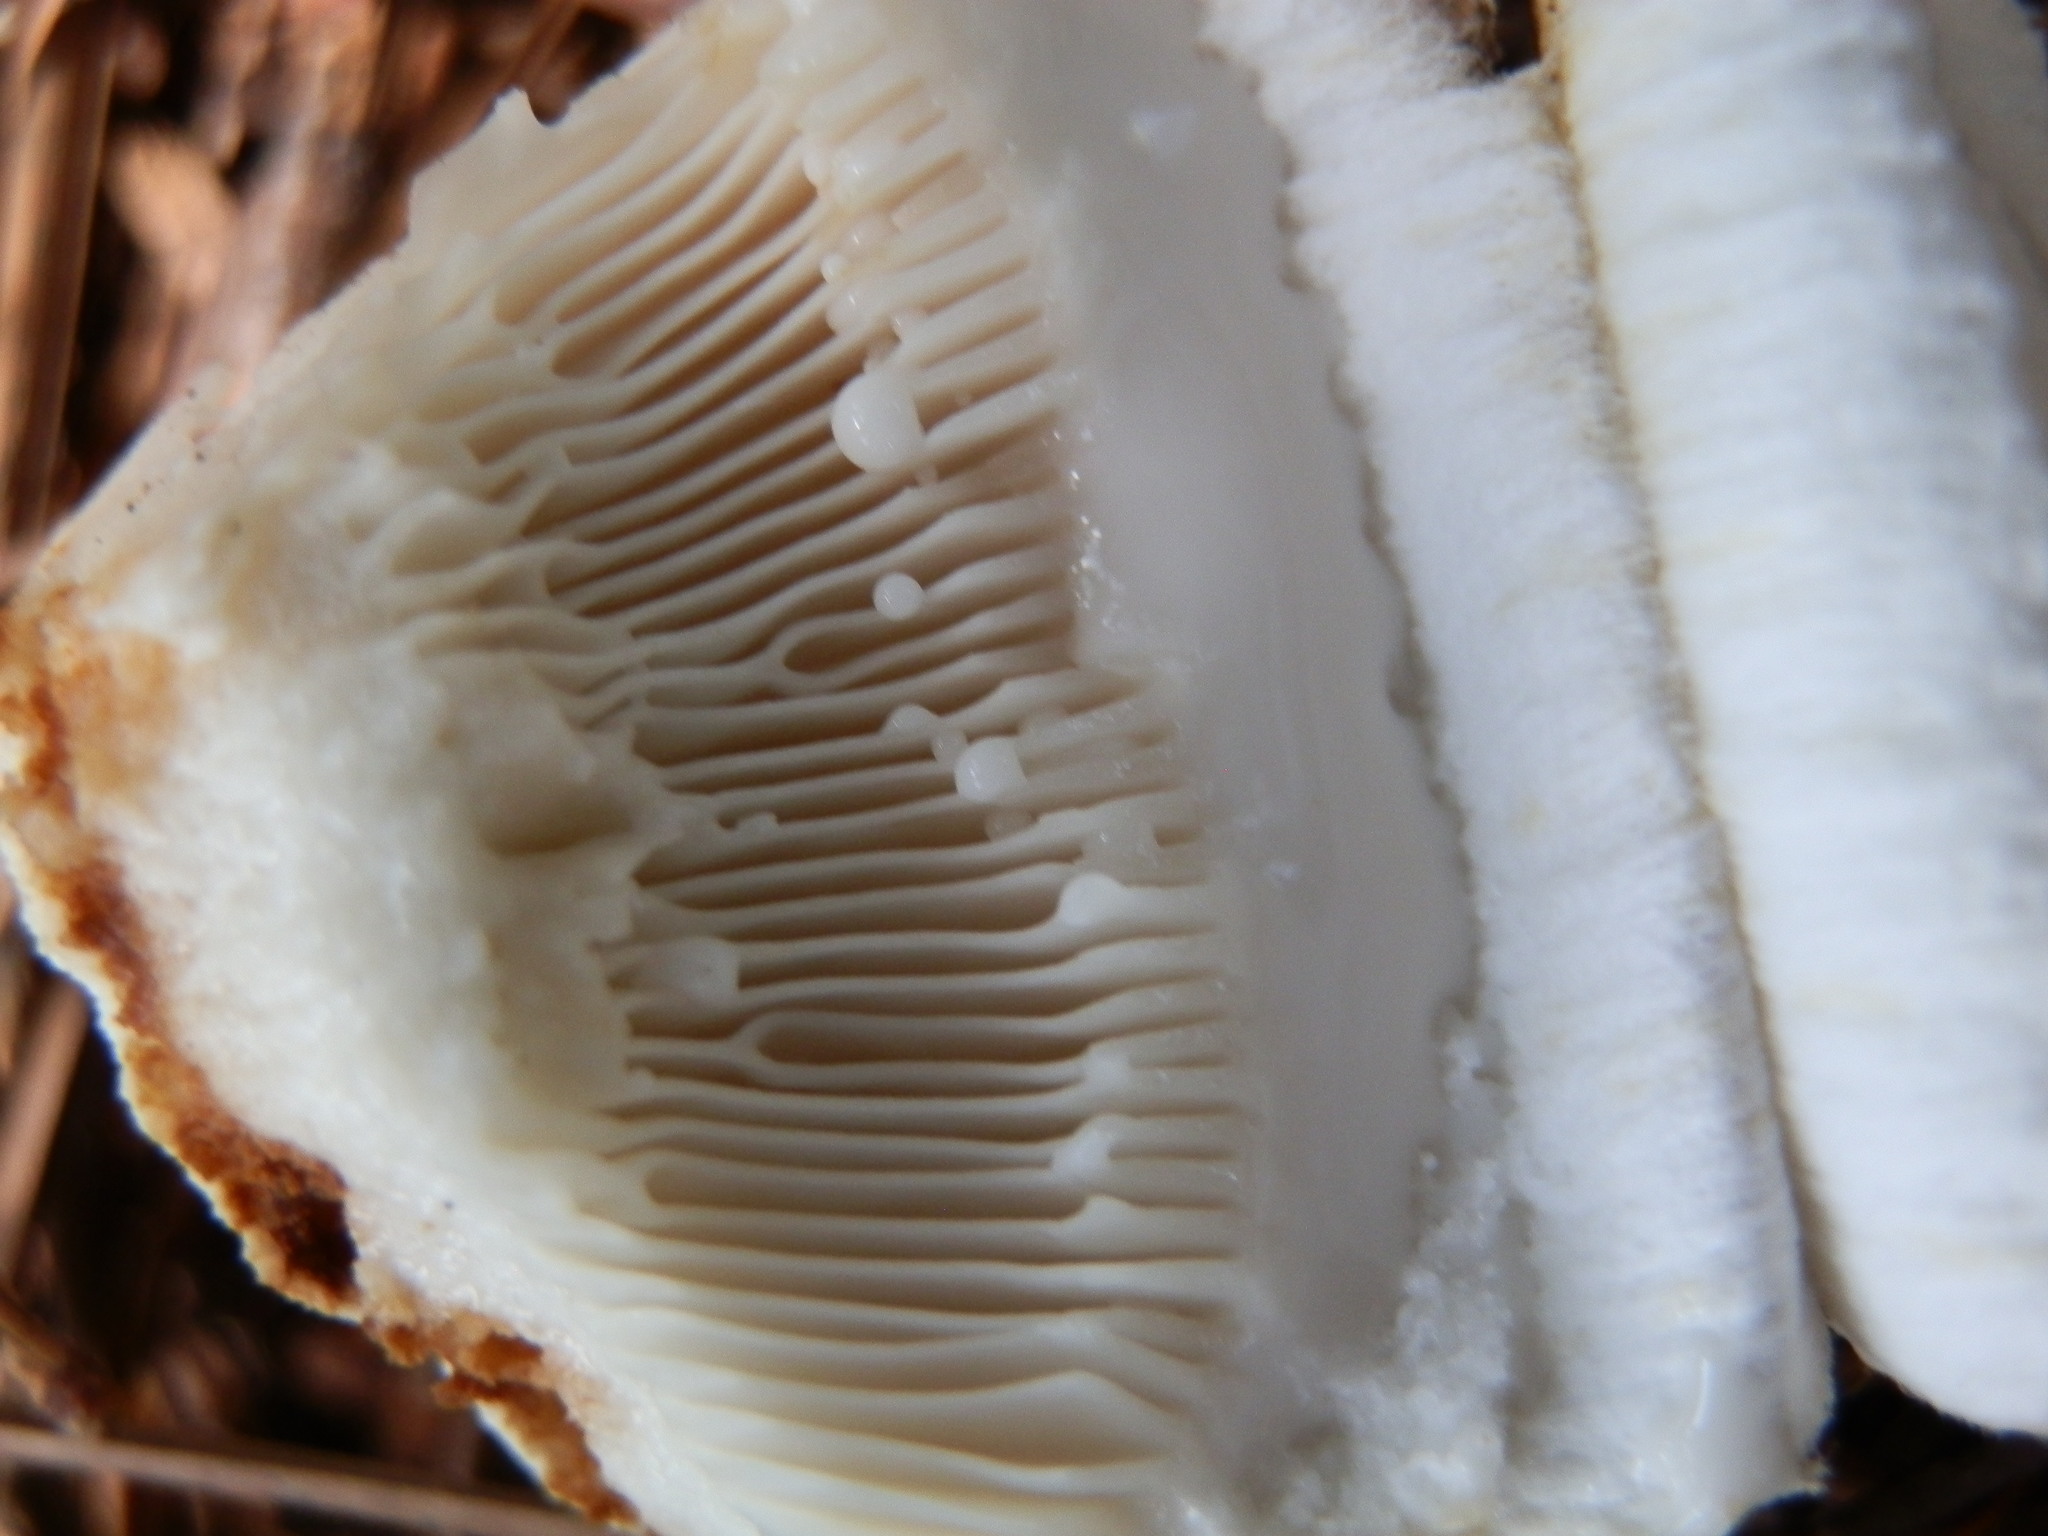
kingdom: Fungi
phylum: Basidiomycota
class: Agaricomycetes
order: Russulales
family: Russulaceae
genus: Lactifluus
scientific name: Lactifluus
